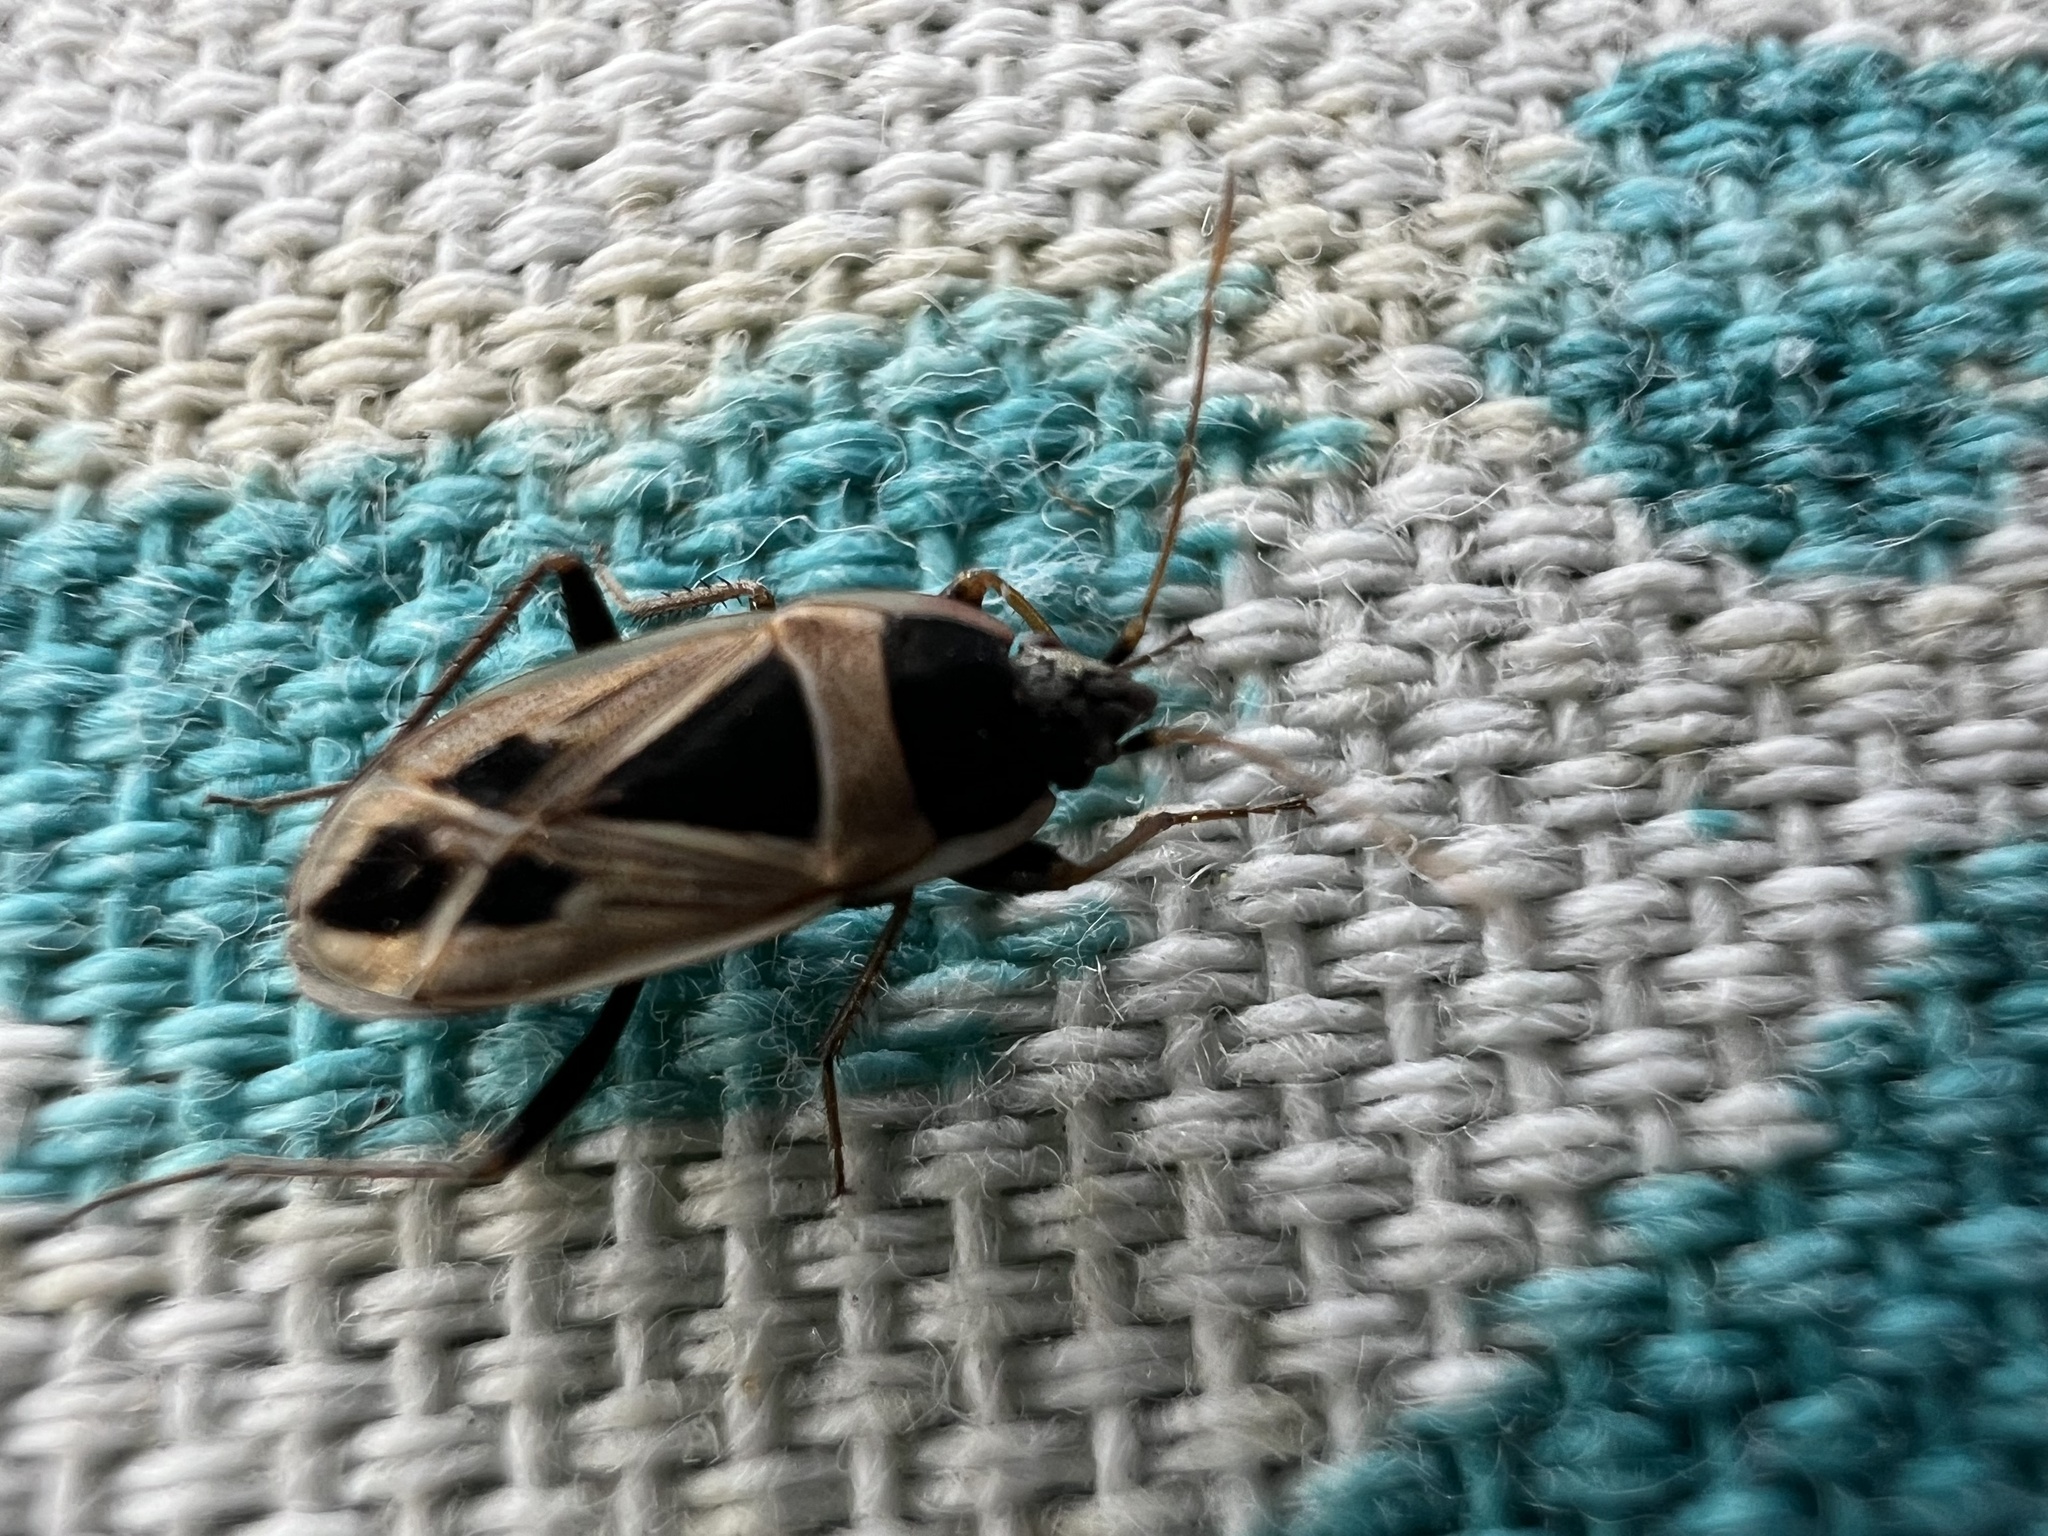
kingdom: Animalia
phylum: Arthropoda
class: Insecta
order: Hemiptera
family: Rhyparochromidae
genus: Xanthochilus
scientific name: Xanthochilus saturnius
